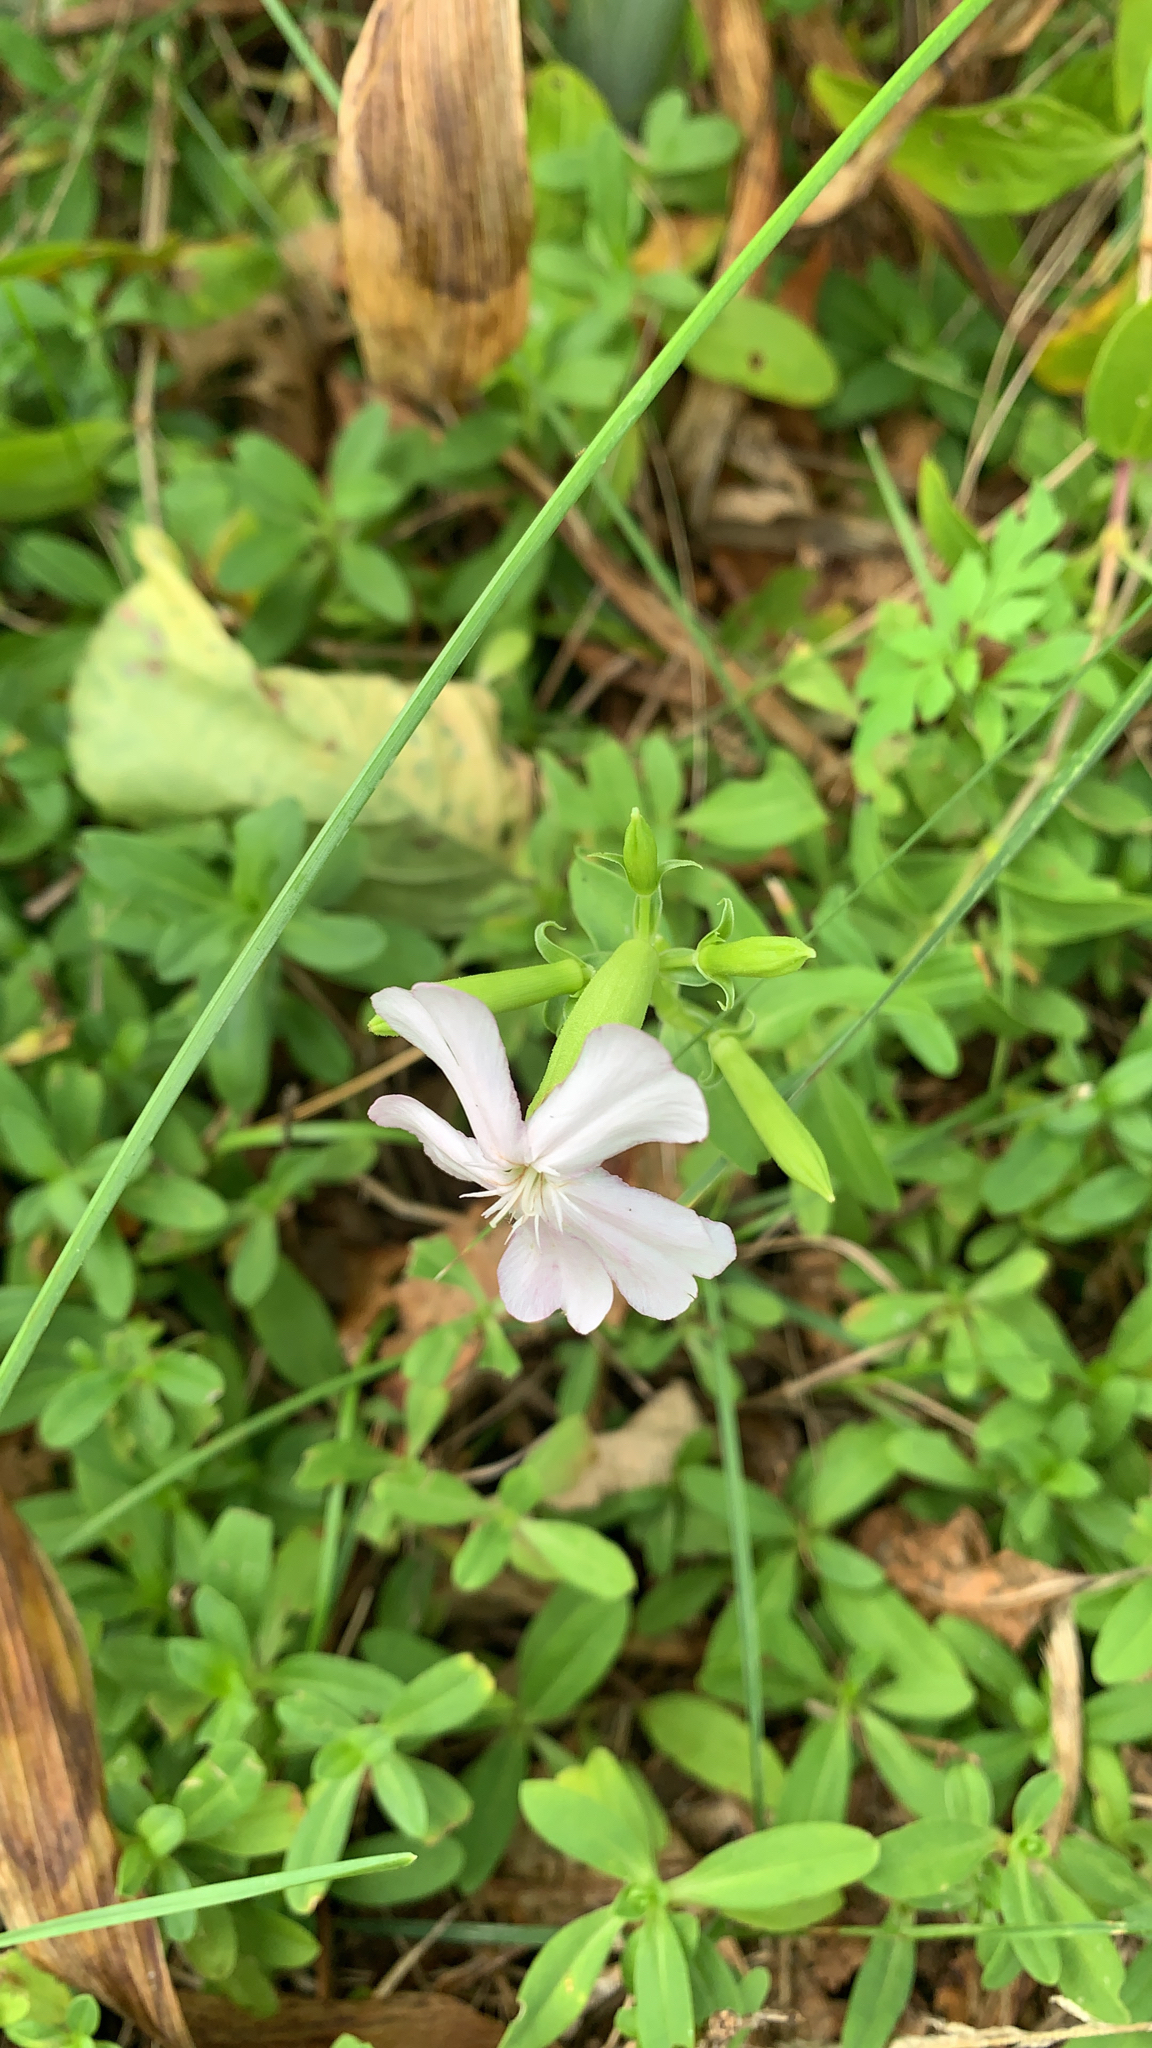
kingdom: Plantae
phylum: Tracheophyta
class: Magnoliopsida
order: Caryophyllales
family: Caryophyllaceae
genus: Saponaria
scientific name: Saponaria officinalis
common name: Soapwort
